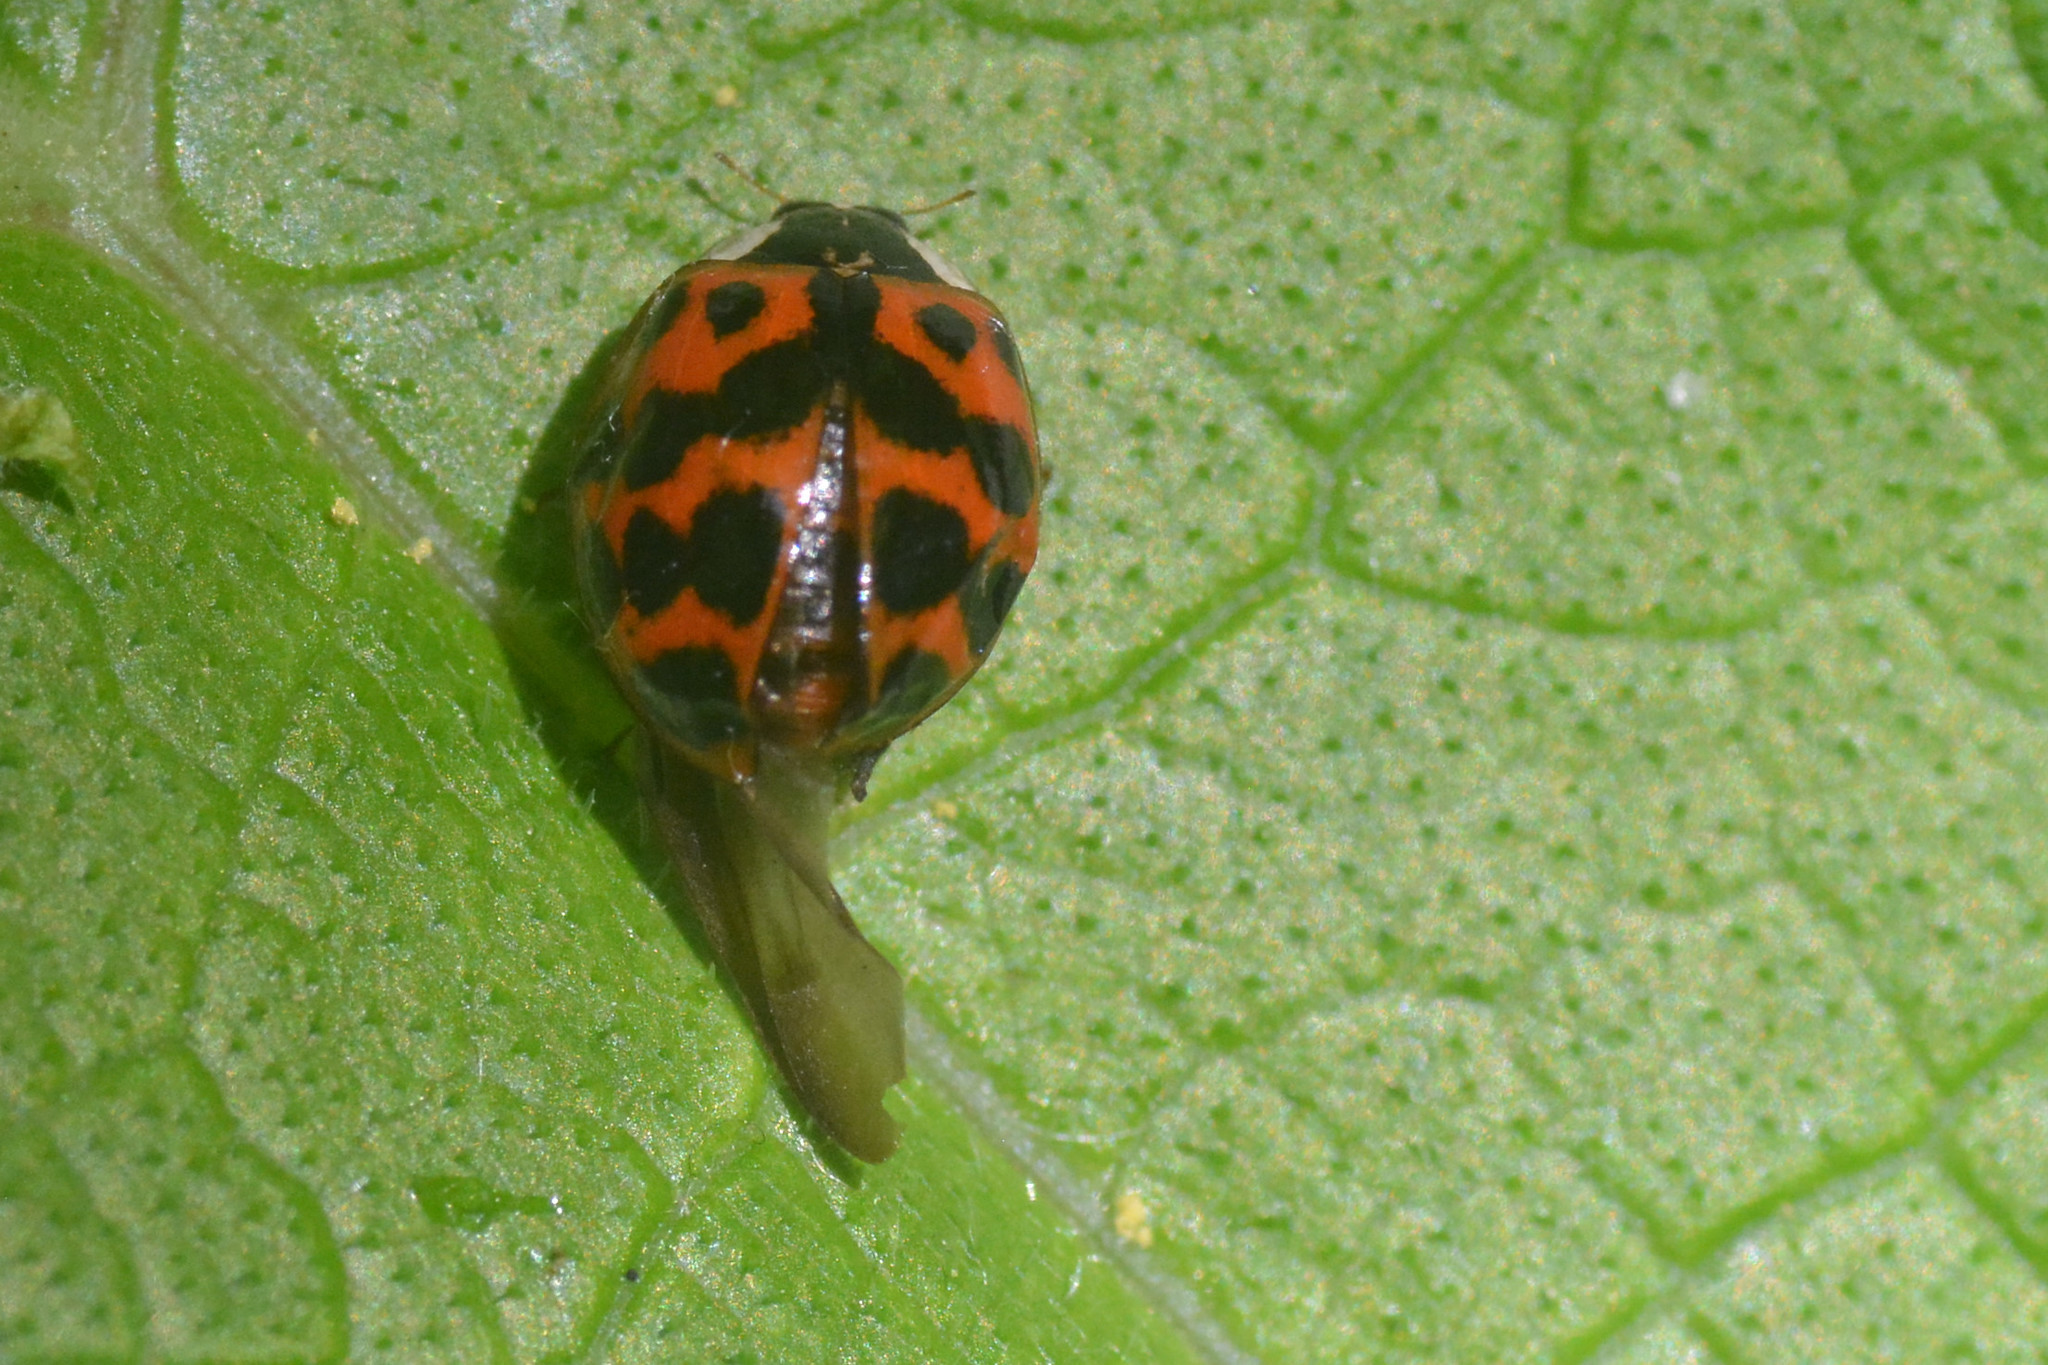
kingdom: Animalia
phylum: Arthropoda
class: Insecta
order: Coleoptera
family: Coccinellidae
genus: Harmonia
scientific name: Harmonia axyridis
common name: Harlequin ladybird
